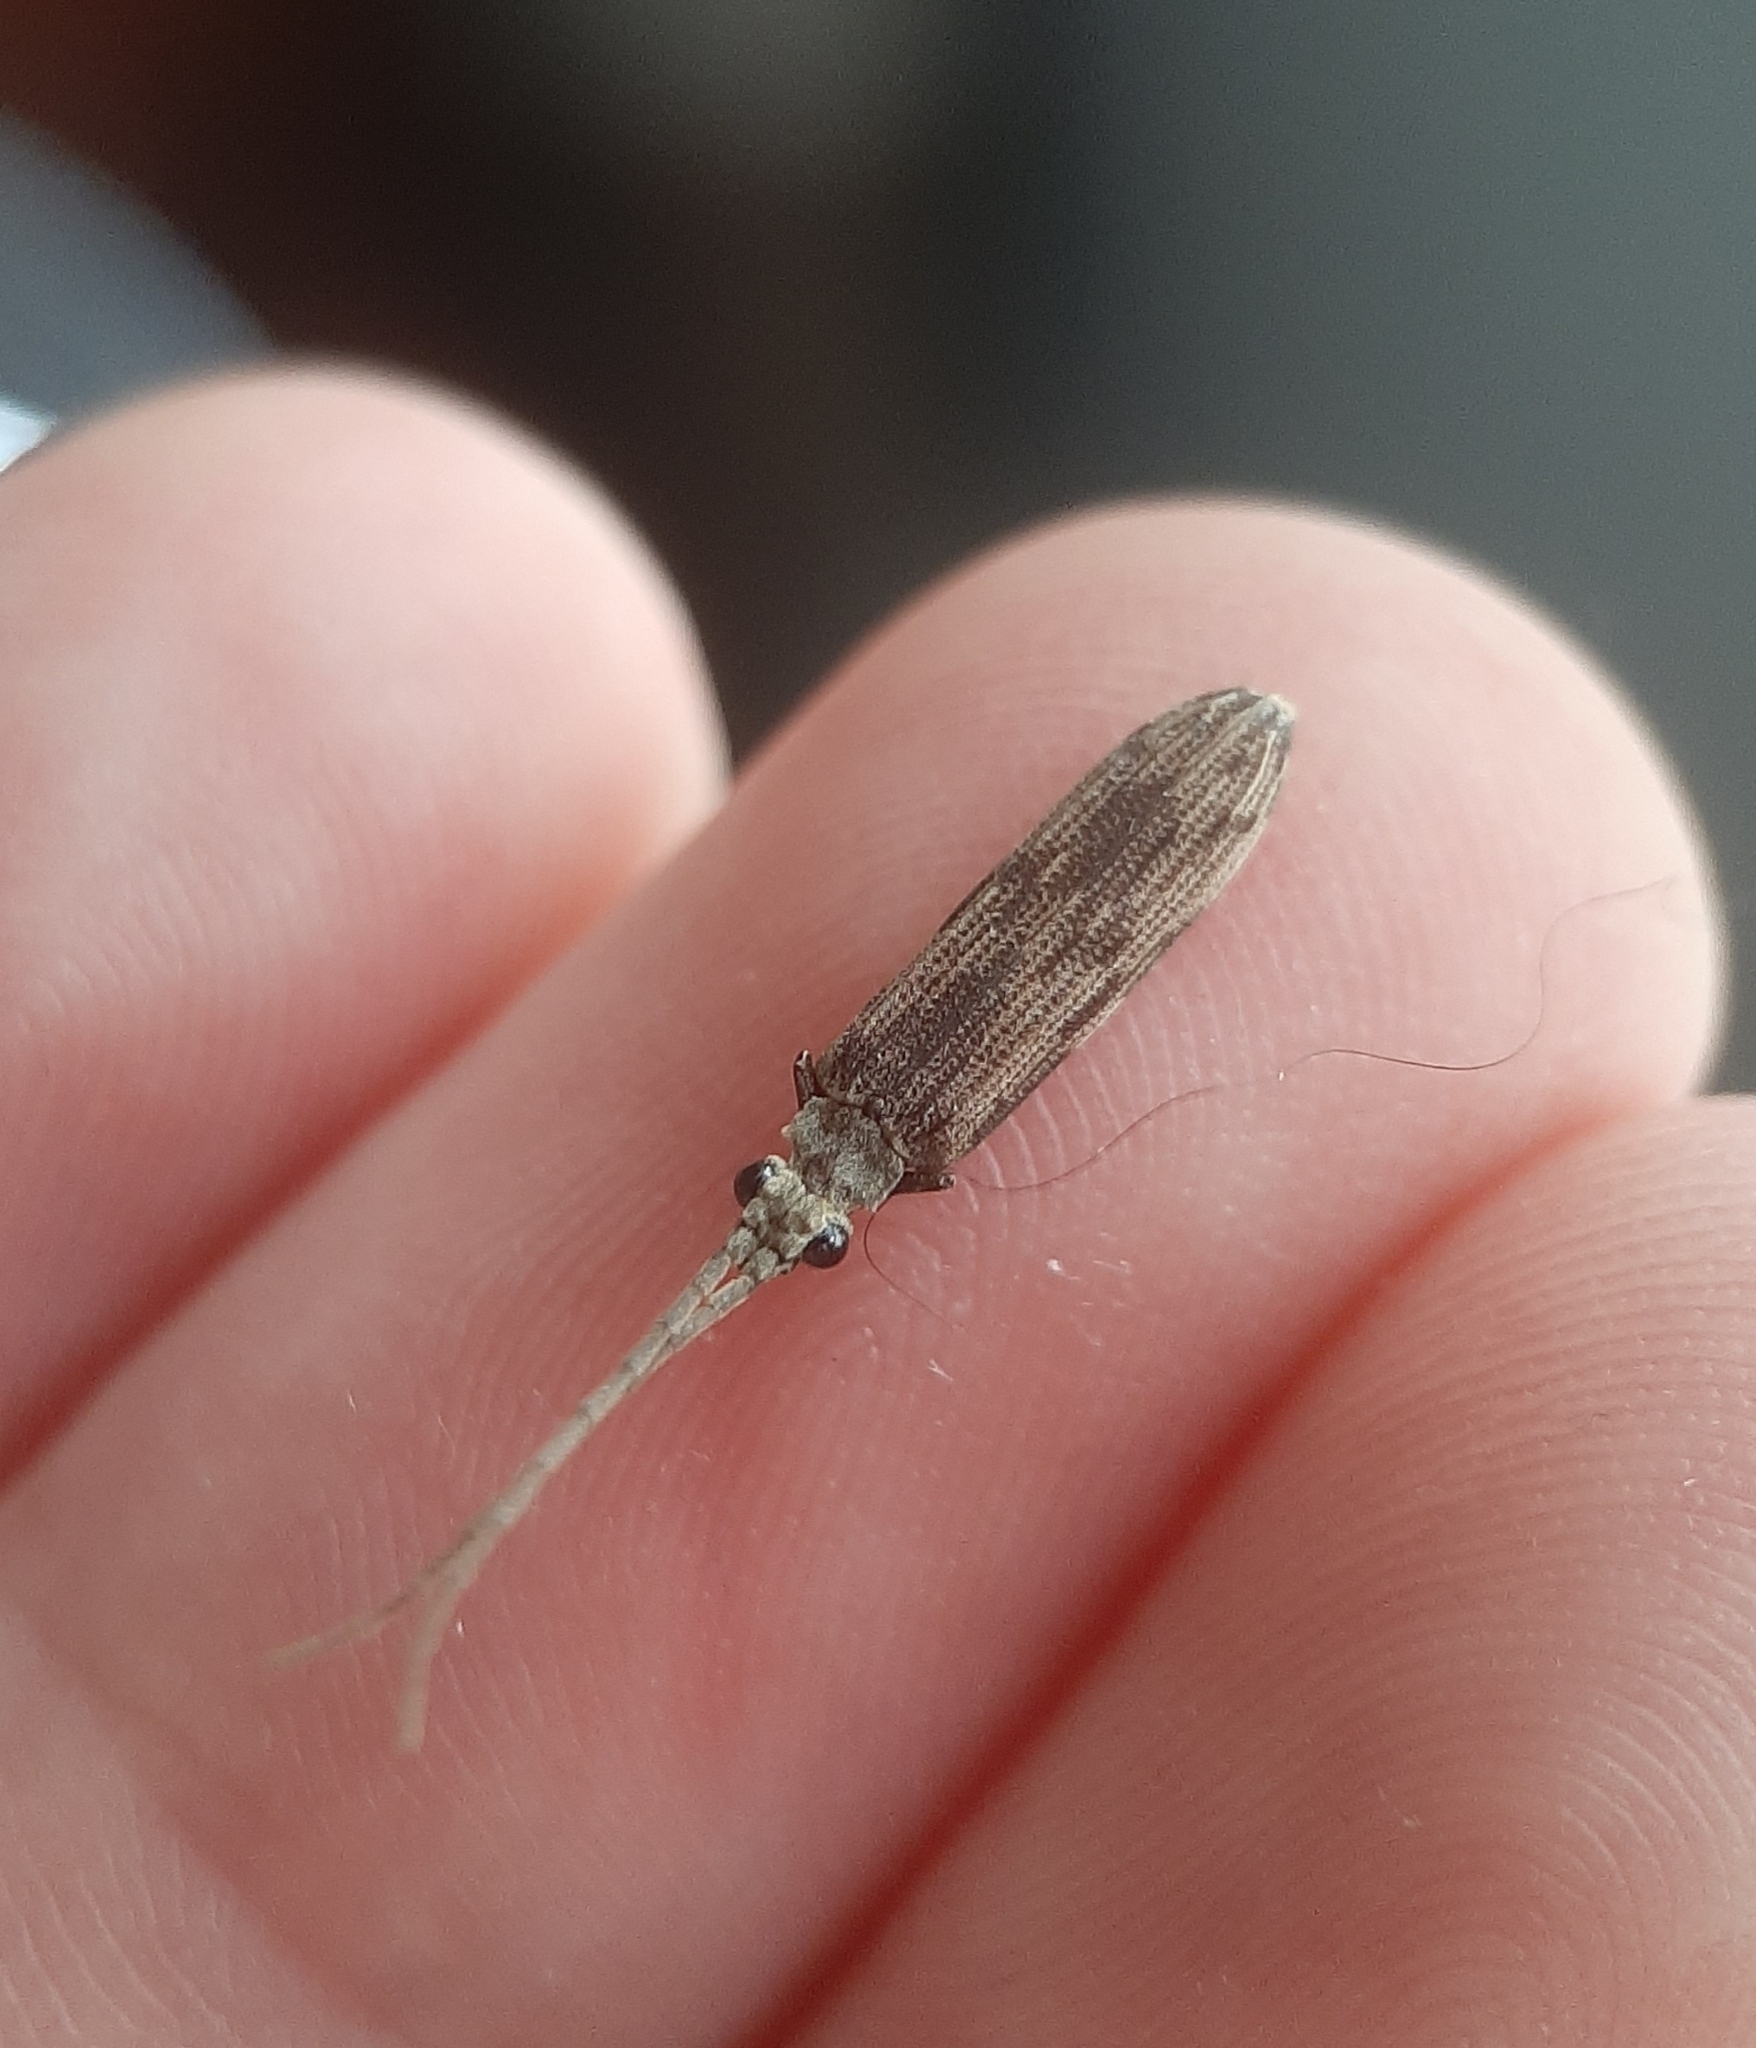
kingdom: Animalia
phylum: Arthropoda
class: Insecta
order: Coleoptera
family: Cupedidae
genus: Tenomerga
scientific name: Tenomerga cinerea
